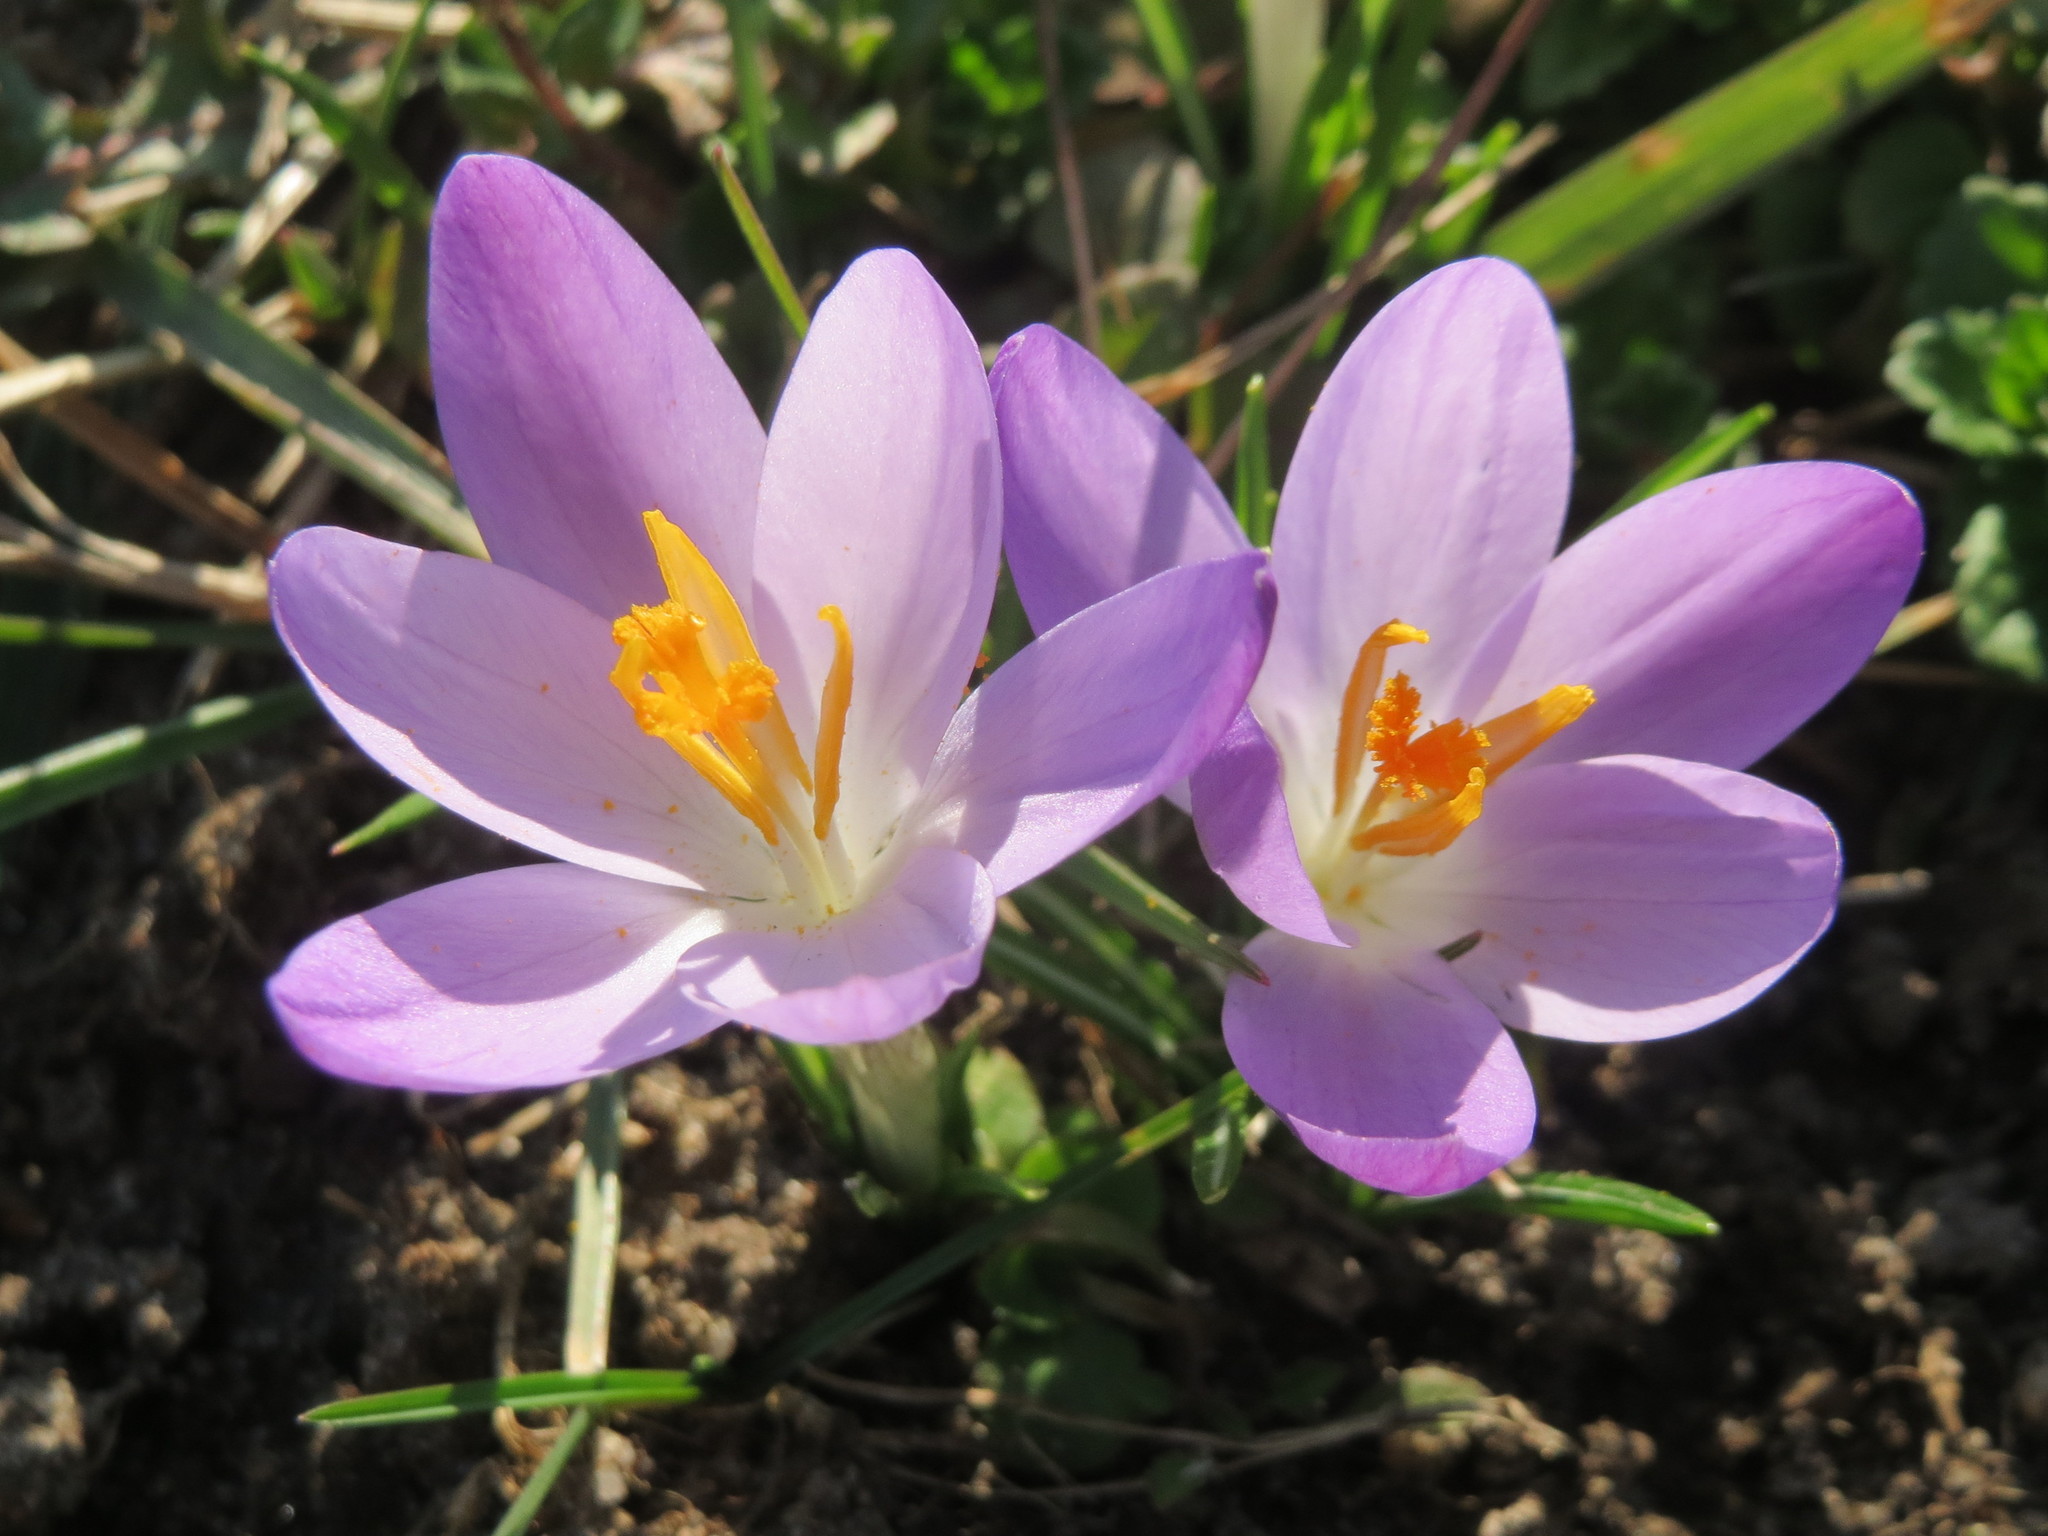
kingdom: Plantae
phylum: Tracheophyta
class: Liliopsida
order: Asparagales
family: Iridaceae
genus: Crocus
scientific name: Crocus tommasinianus
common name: Early crocus
